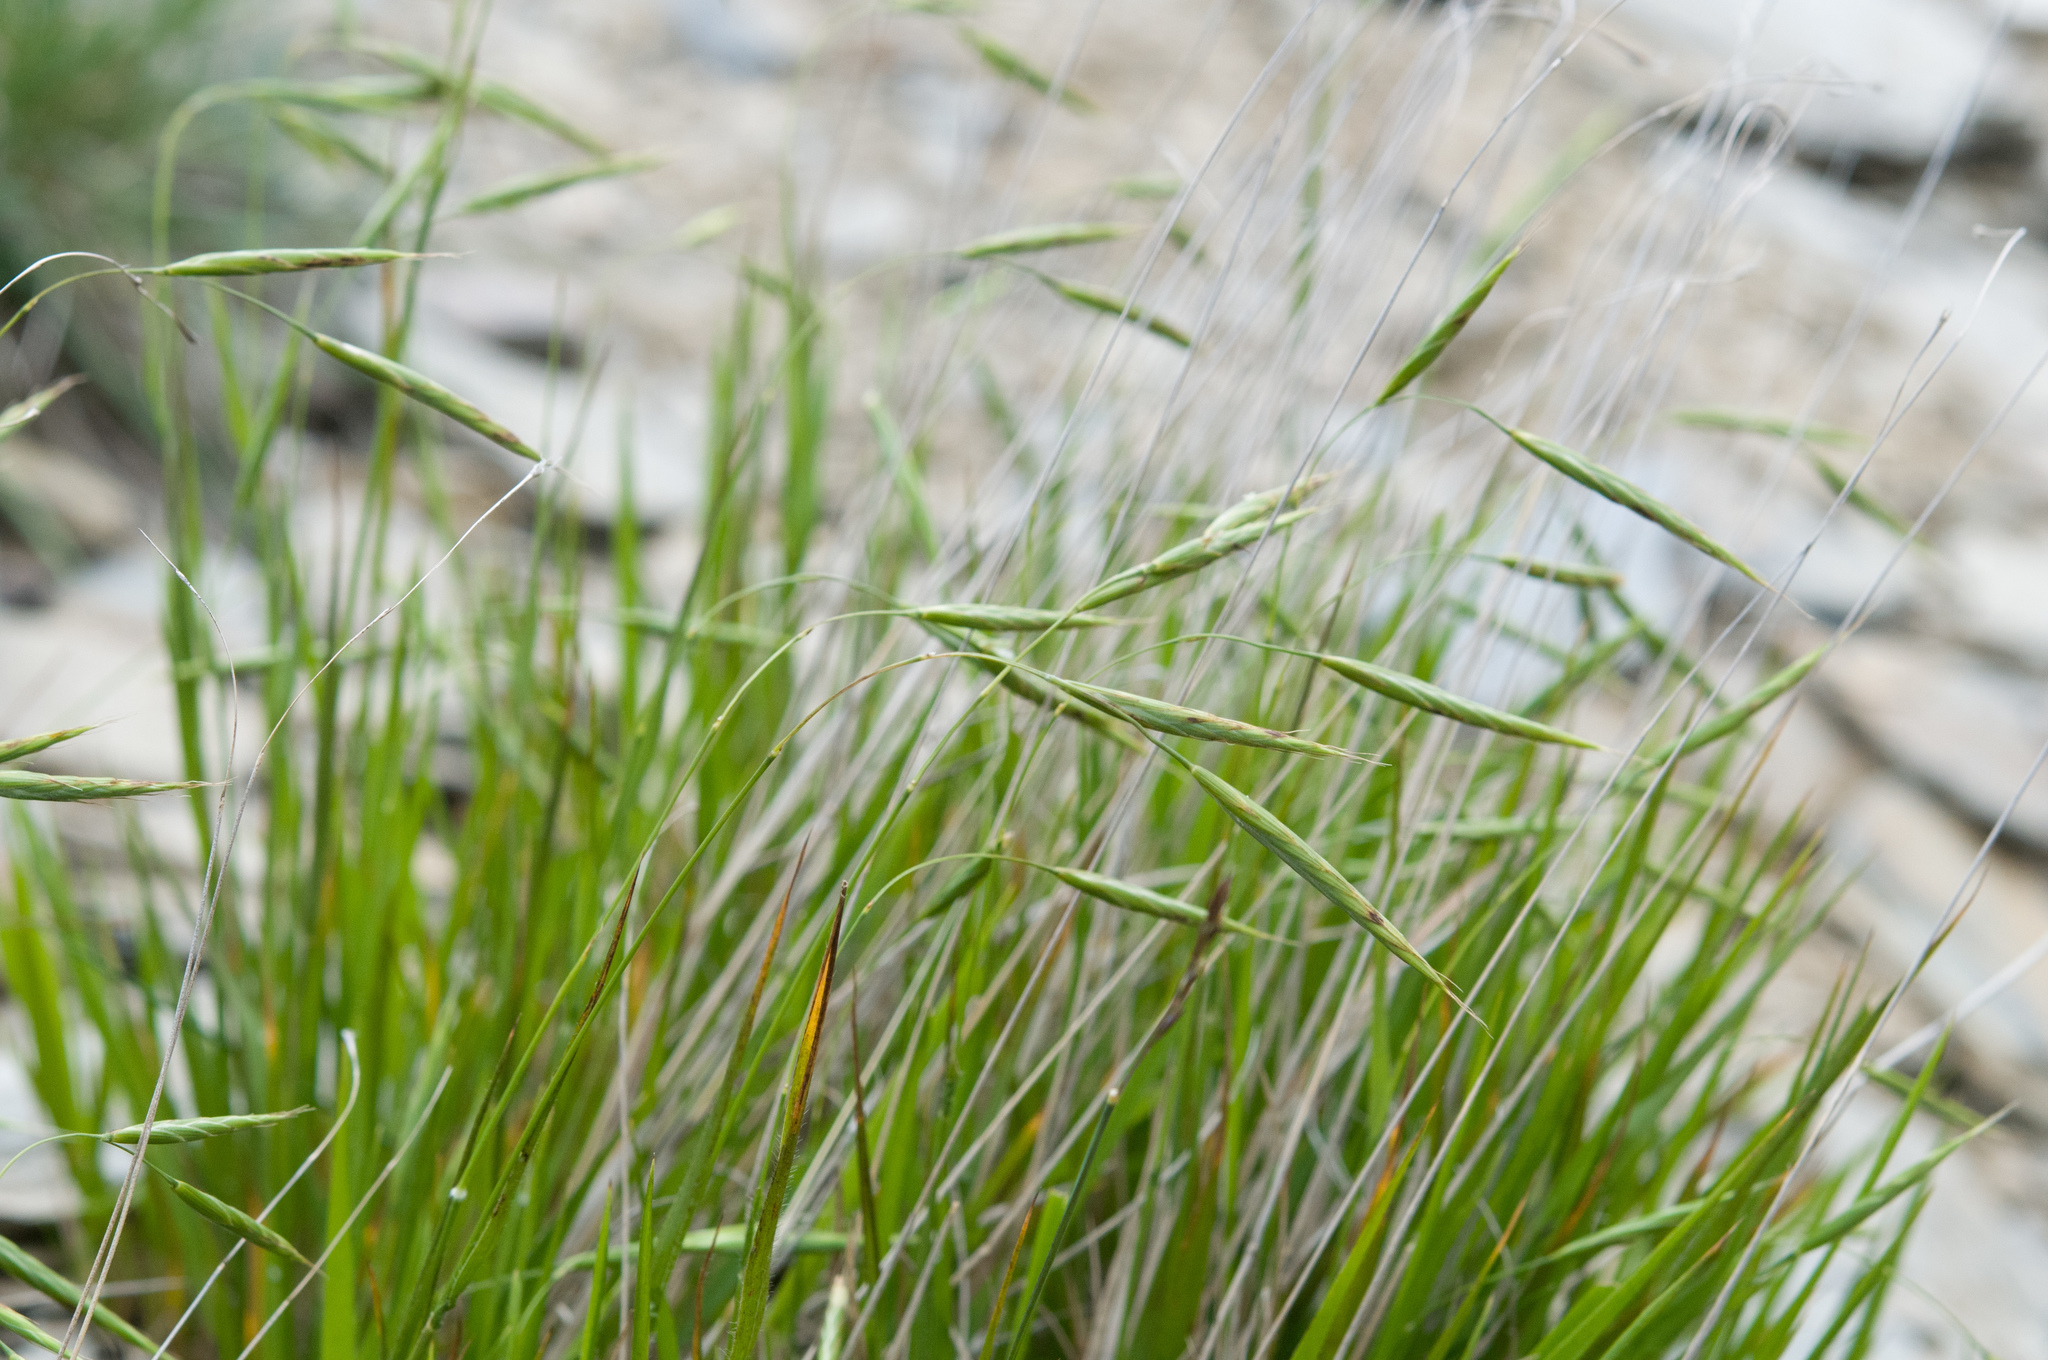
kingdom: Plantae
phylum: Tracheophyta
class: Liliopsida
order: Poales
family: Poaceae
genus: Brachypodium
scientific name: Brachypodium kawakamii
